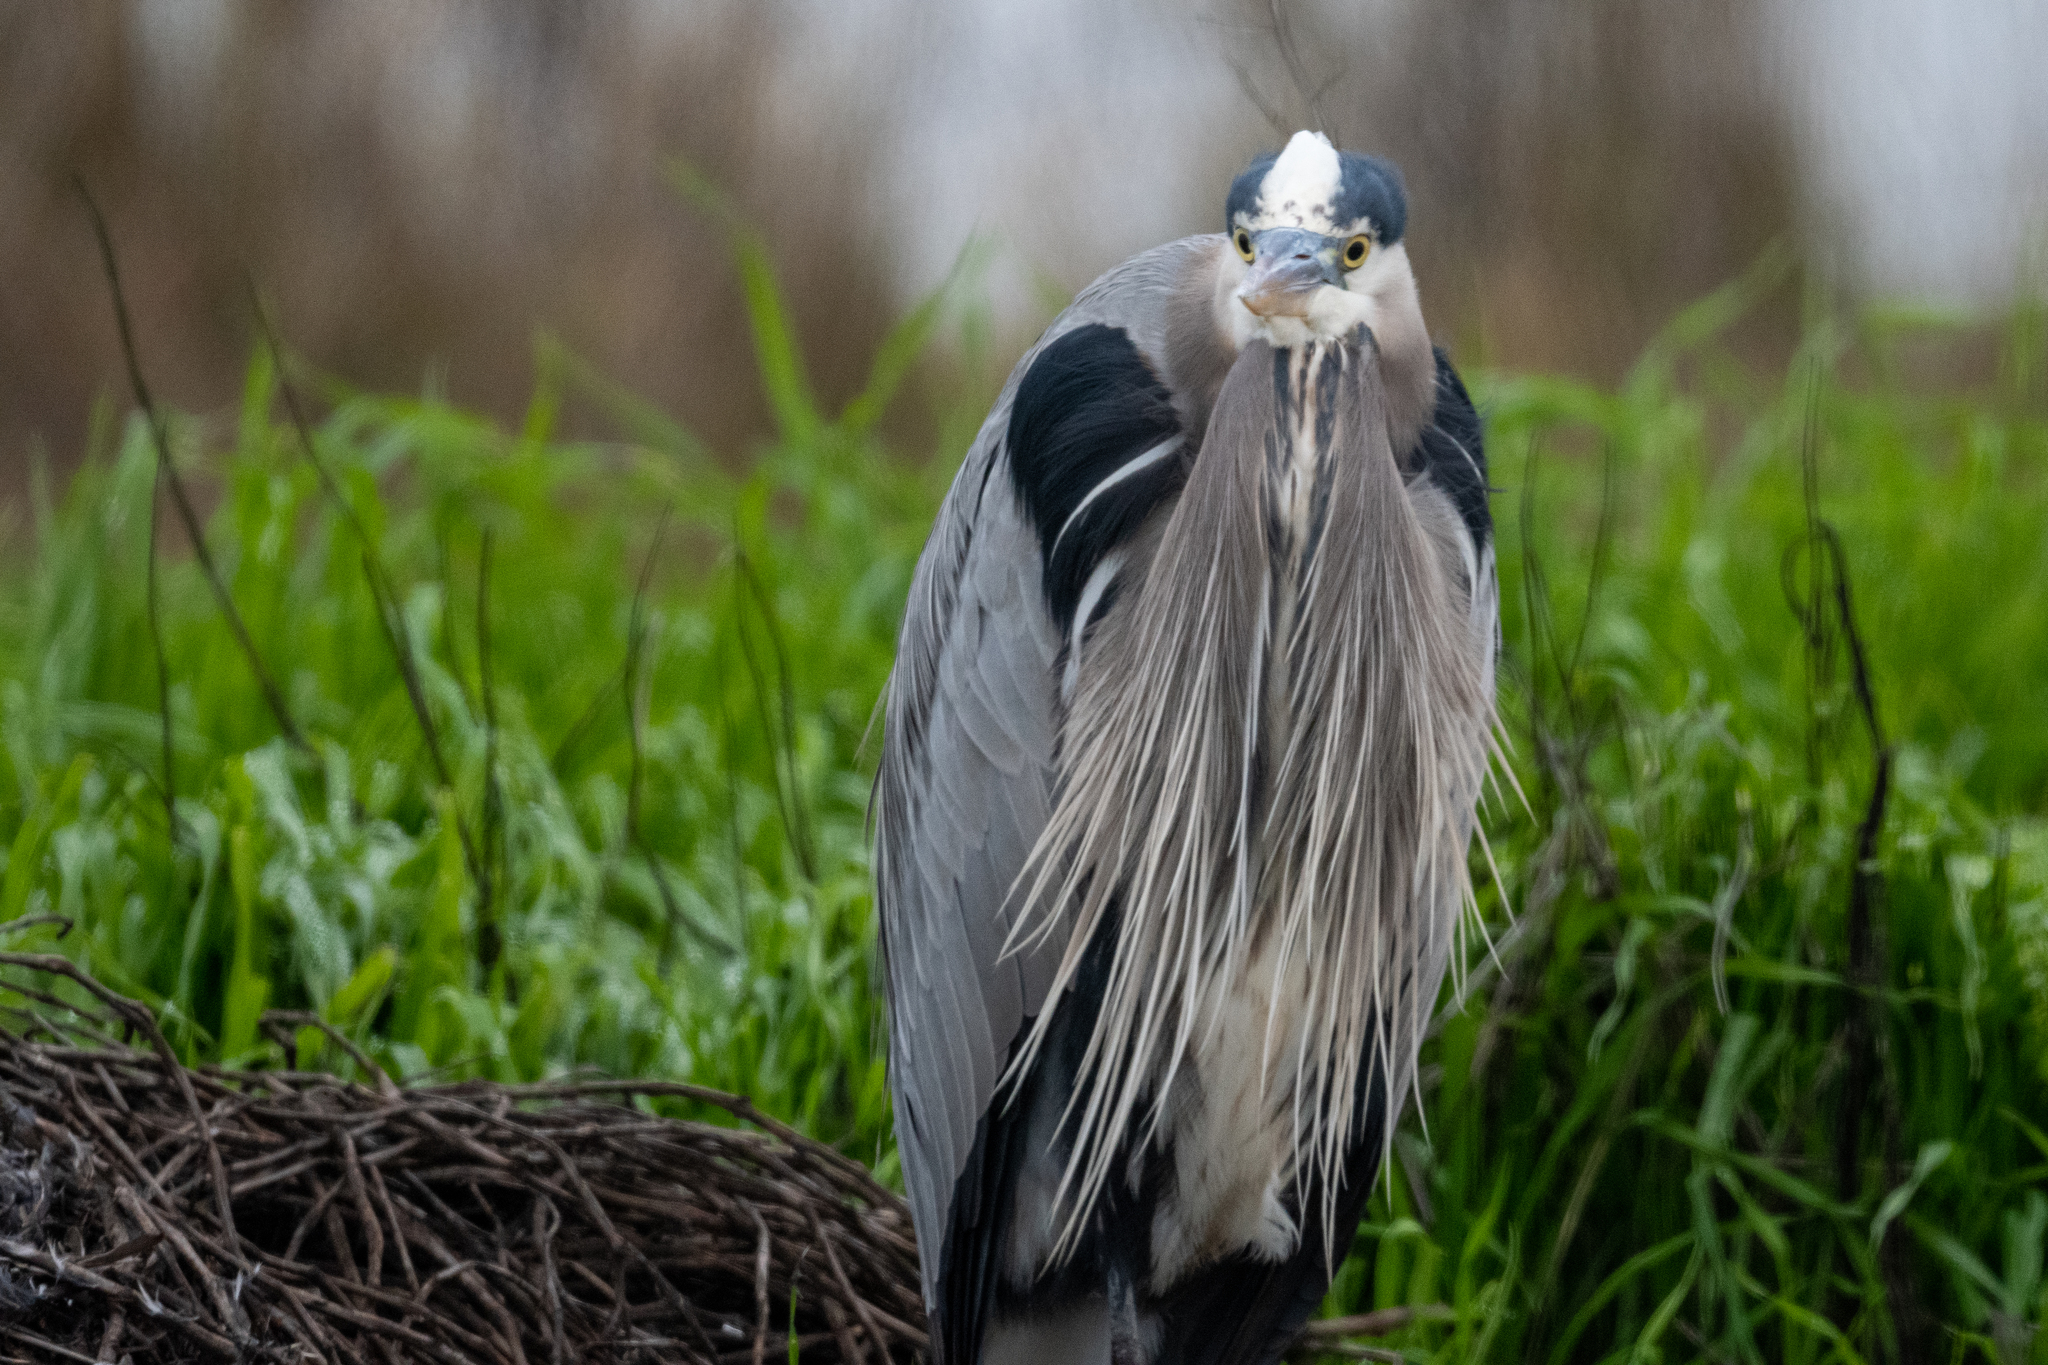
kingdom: Animalia
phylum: Chordata
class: Aves
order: Pelecaniformes
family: Ardeidae
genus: Ardea
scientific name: Ardea herodias
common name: Great blue heron
